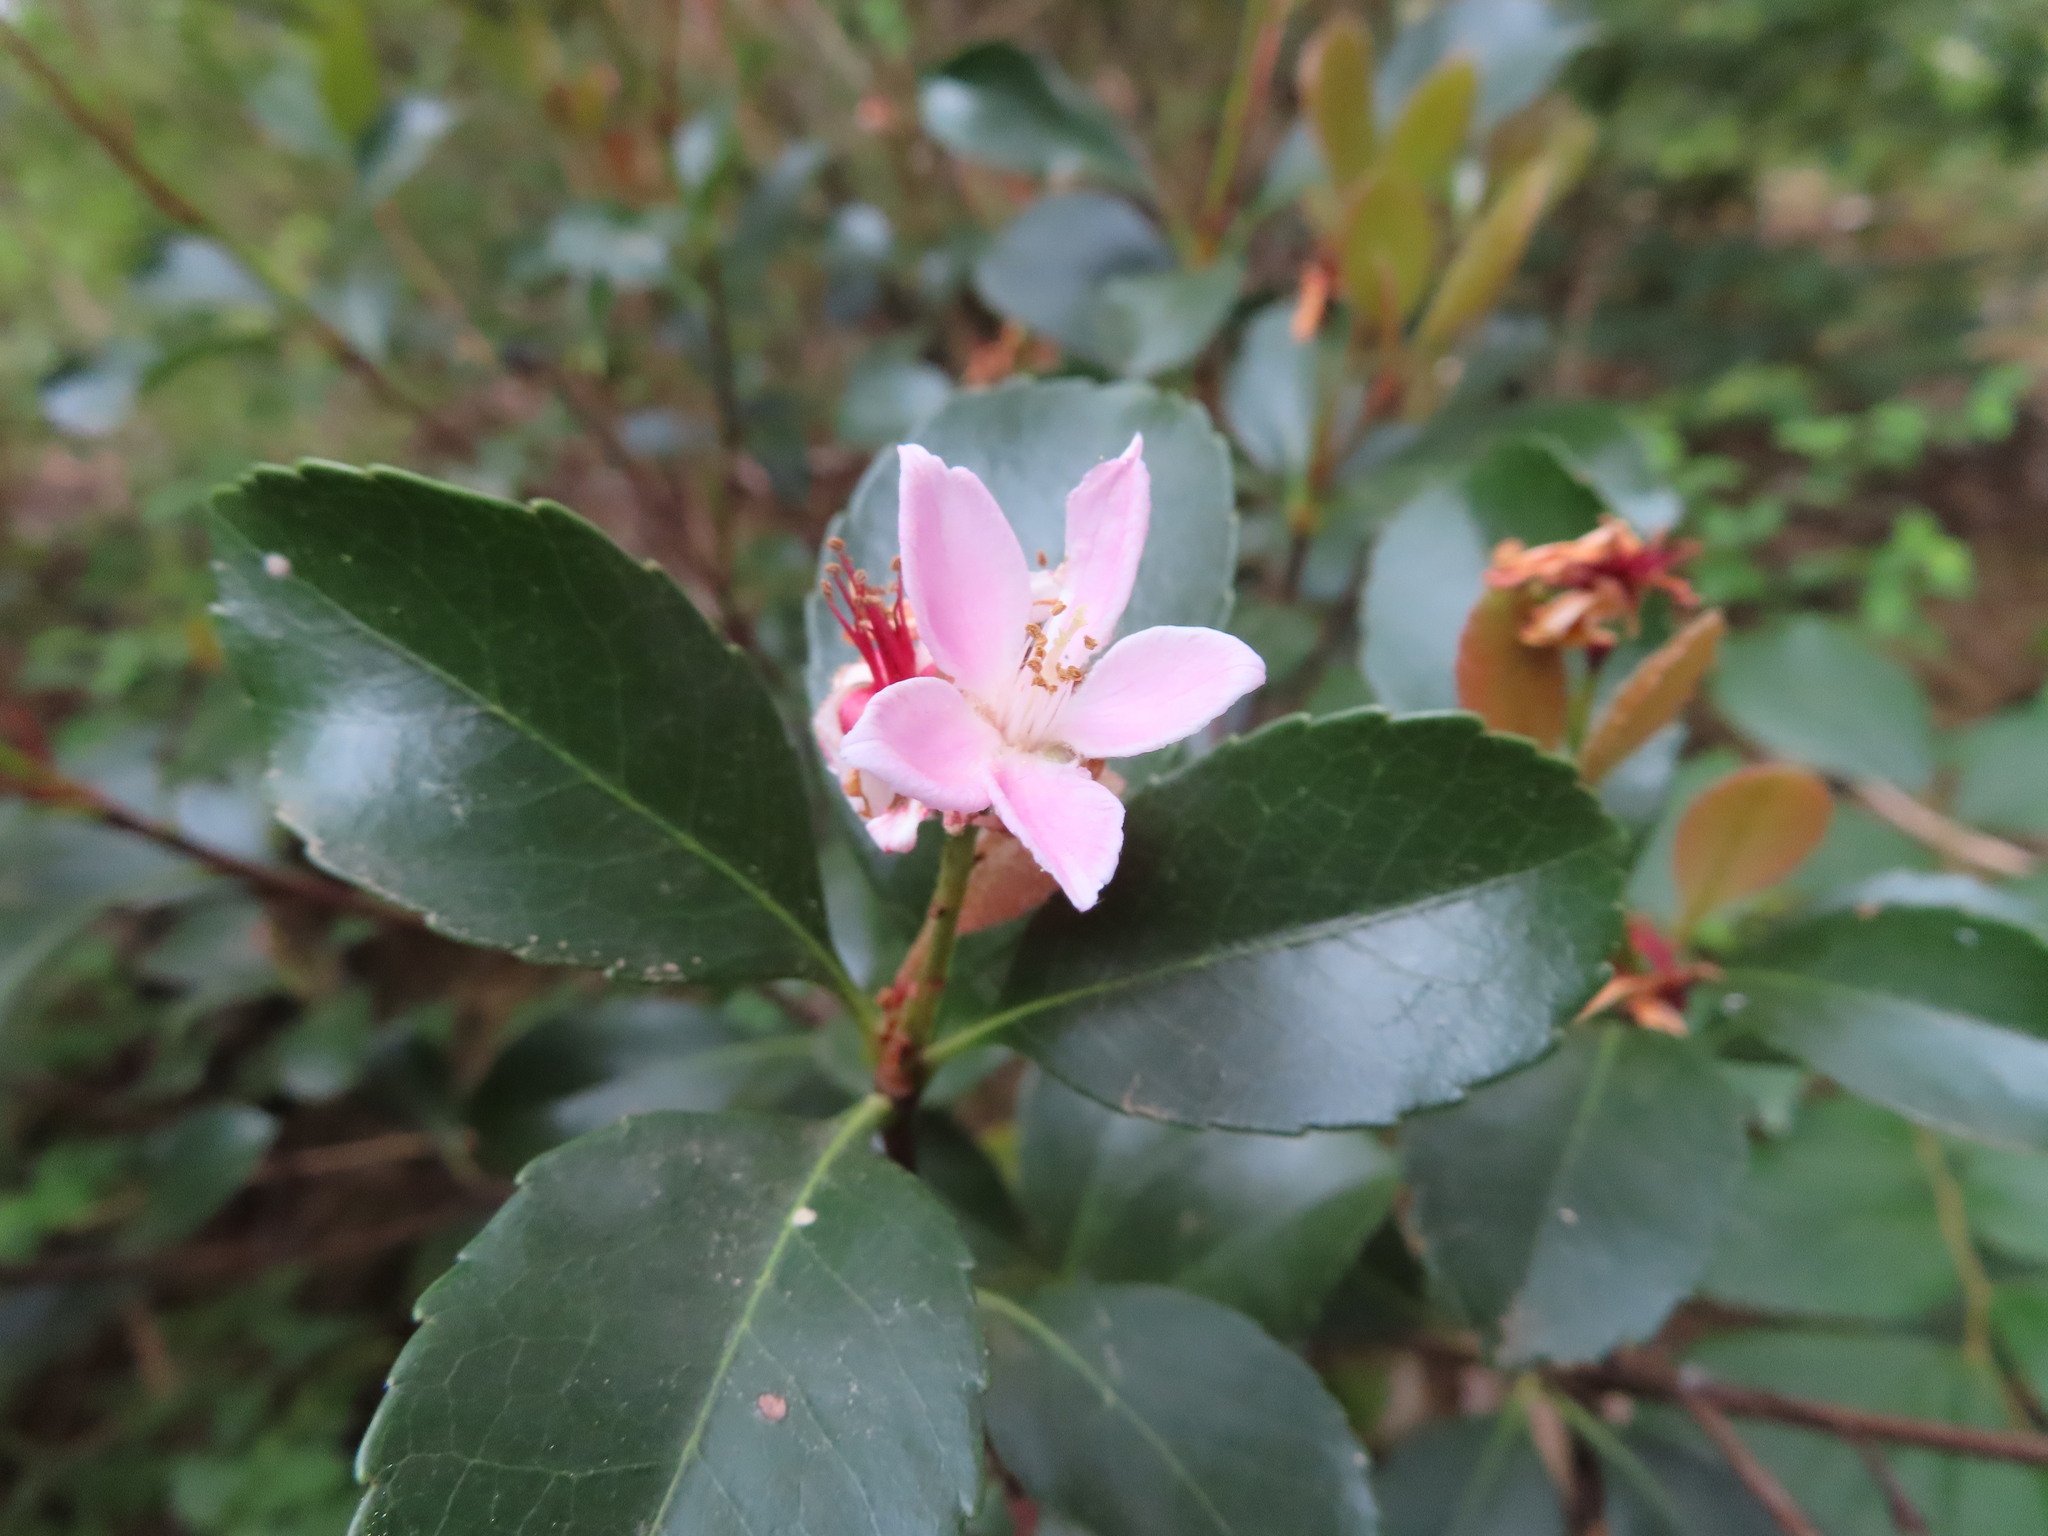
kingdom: Plantae
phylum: Tracheophyta
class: Magnoliopsida
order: Rosales
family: Rosaceae
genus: Rhaphiolepis
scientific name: Rhaphiolepis indica
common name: India-hawthorn
